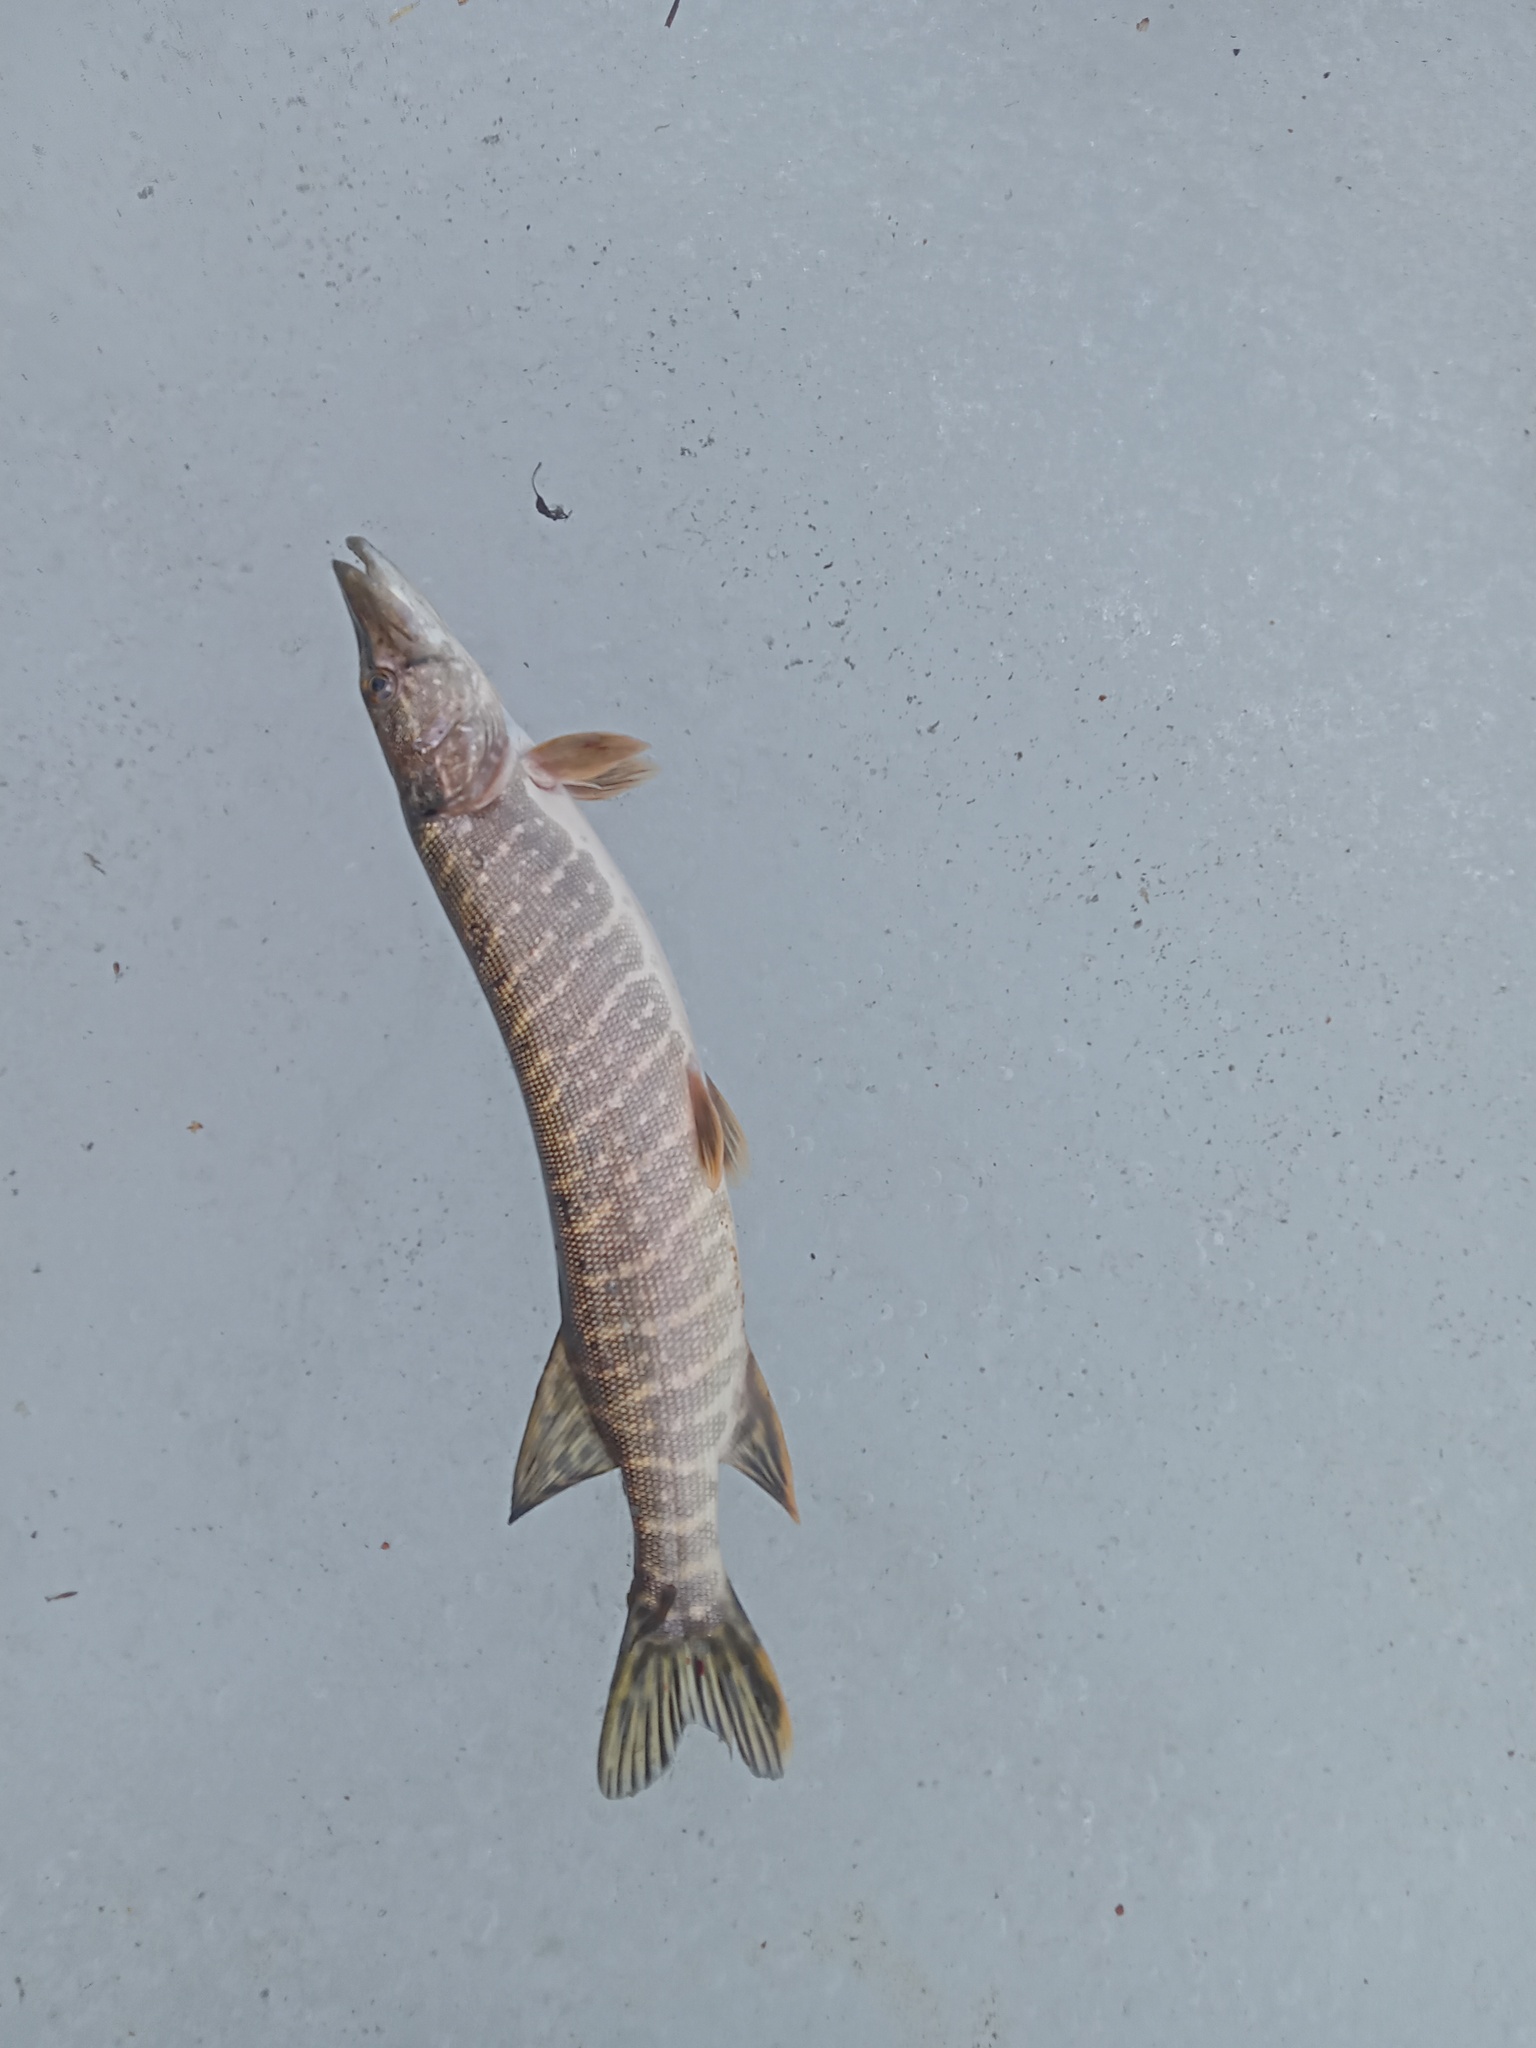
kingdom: Animalia
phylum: Chordata
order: Esociformes
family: Esocidae
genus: Esox
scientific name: Esox lucius
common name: Northern pike
